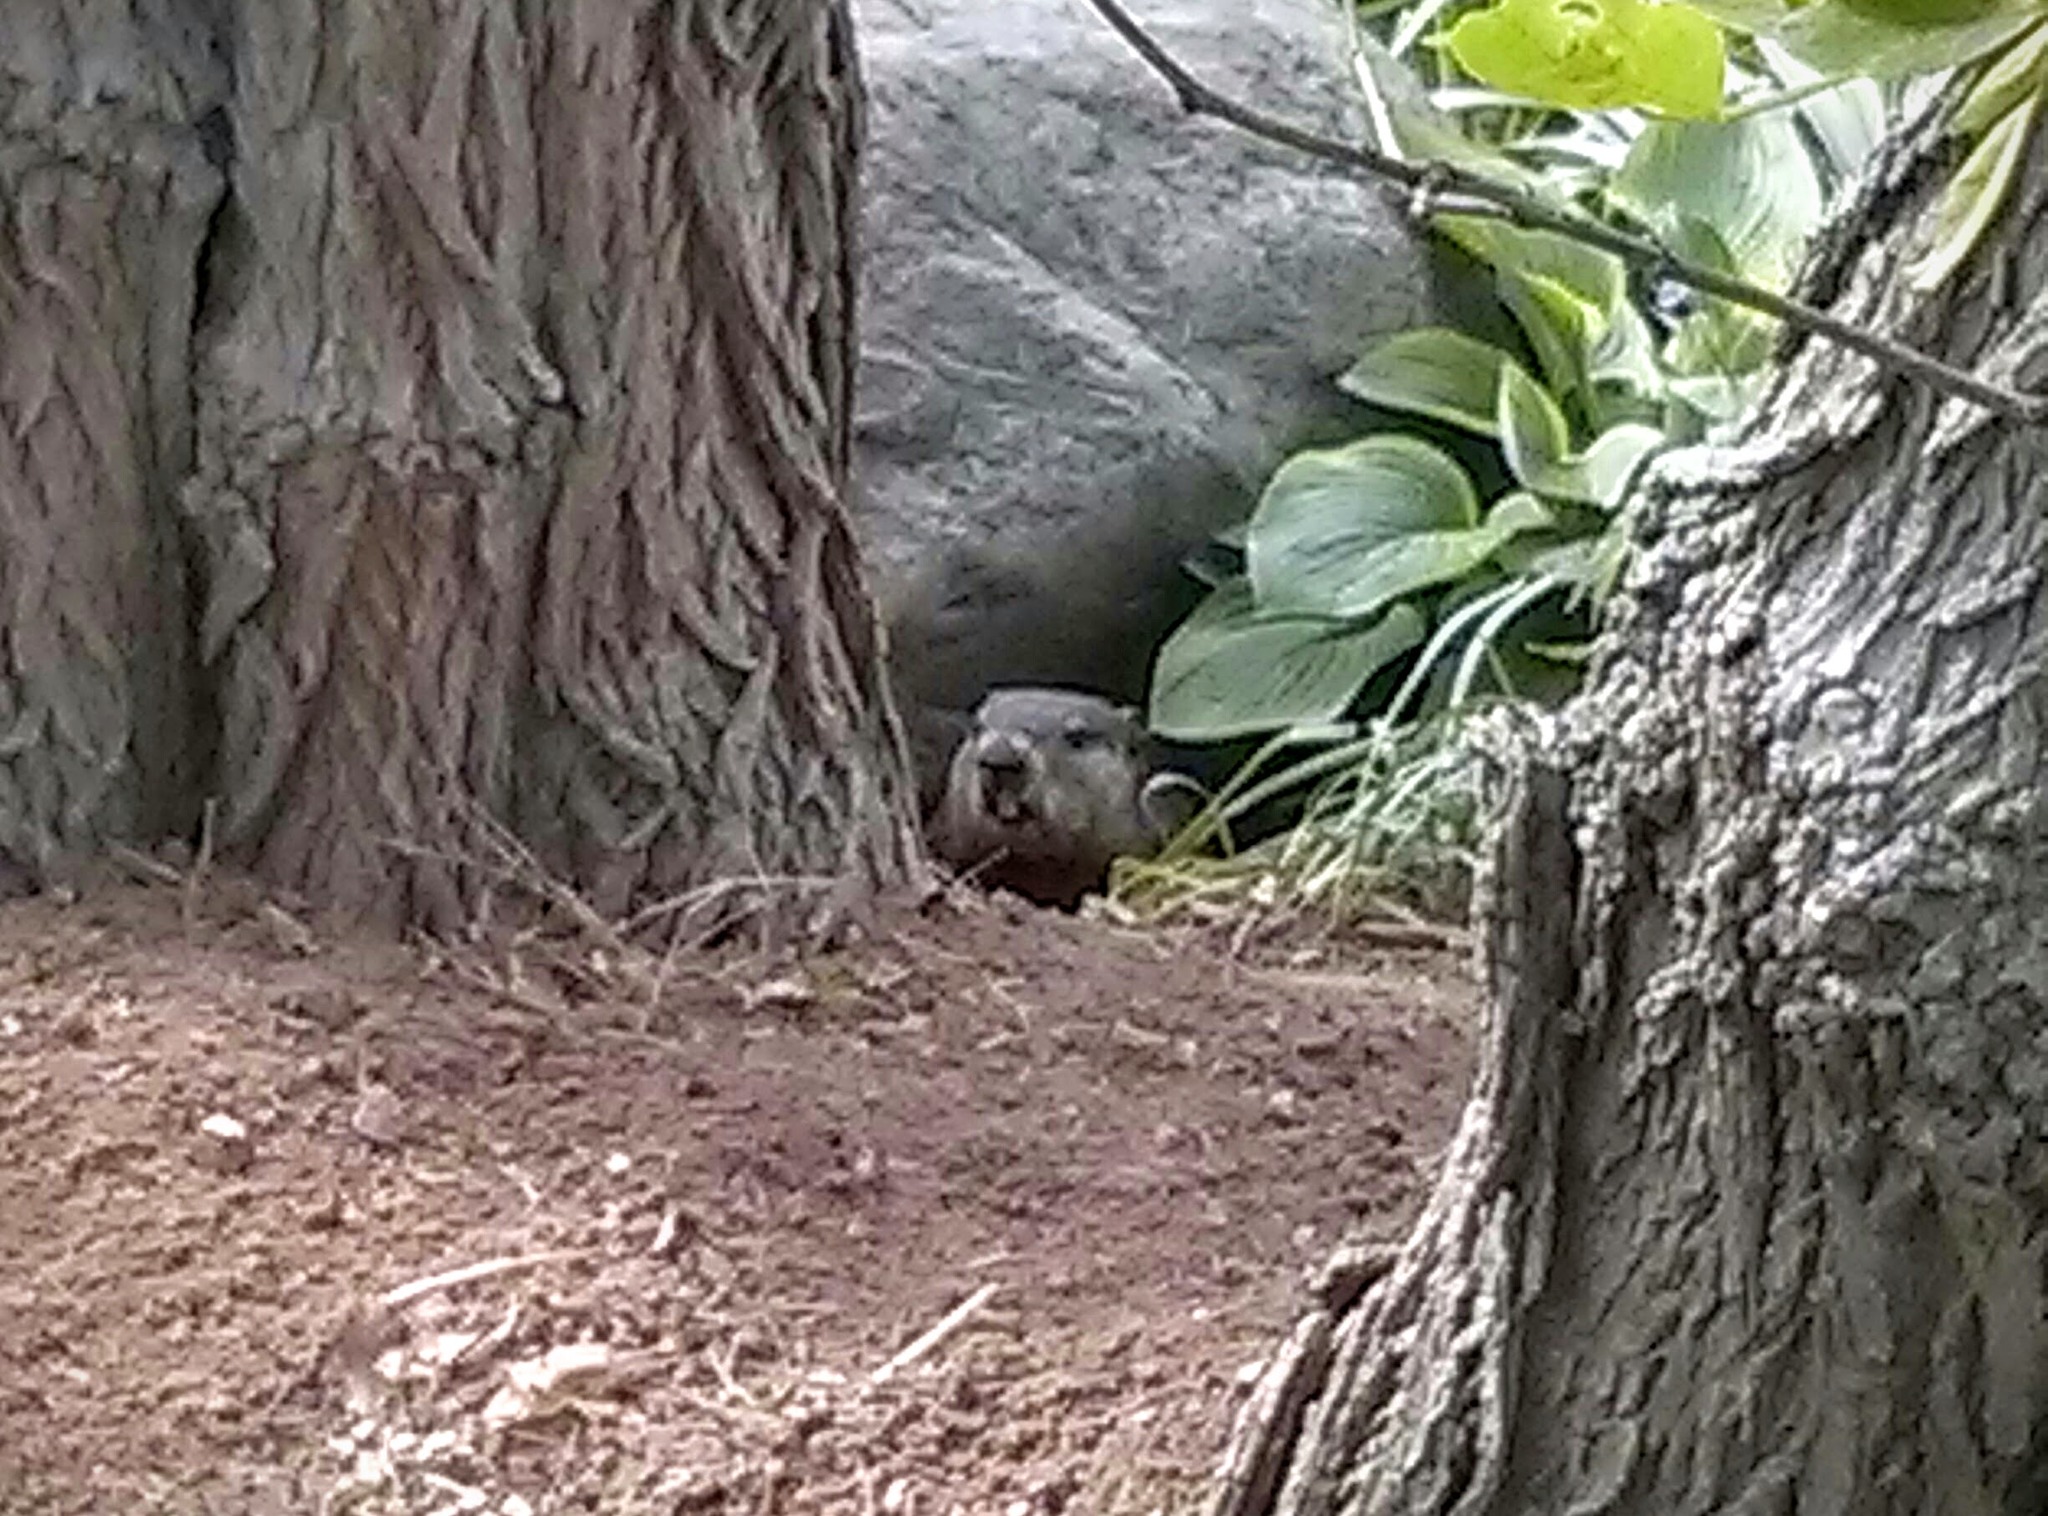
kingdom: Animalia
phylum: Chordata
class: Mammalia
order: Rodentia
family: Sciuridae
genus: Marmota
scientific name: Marmota monax
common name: Groundhog
